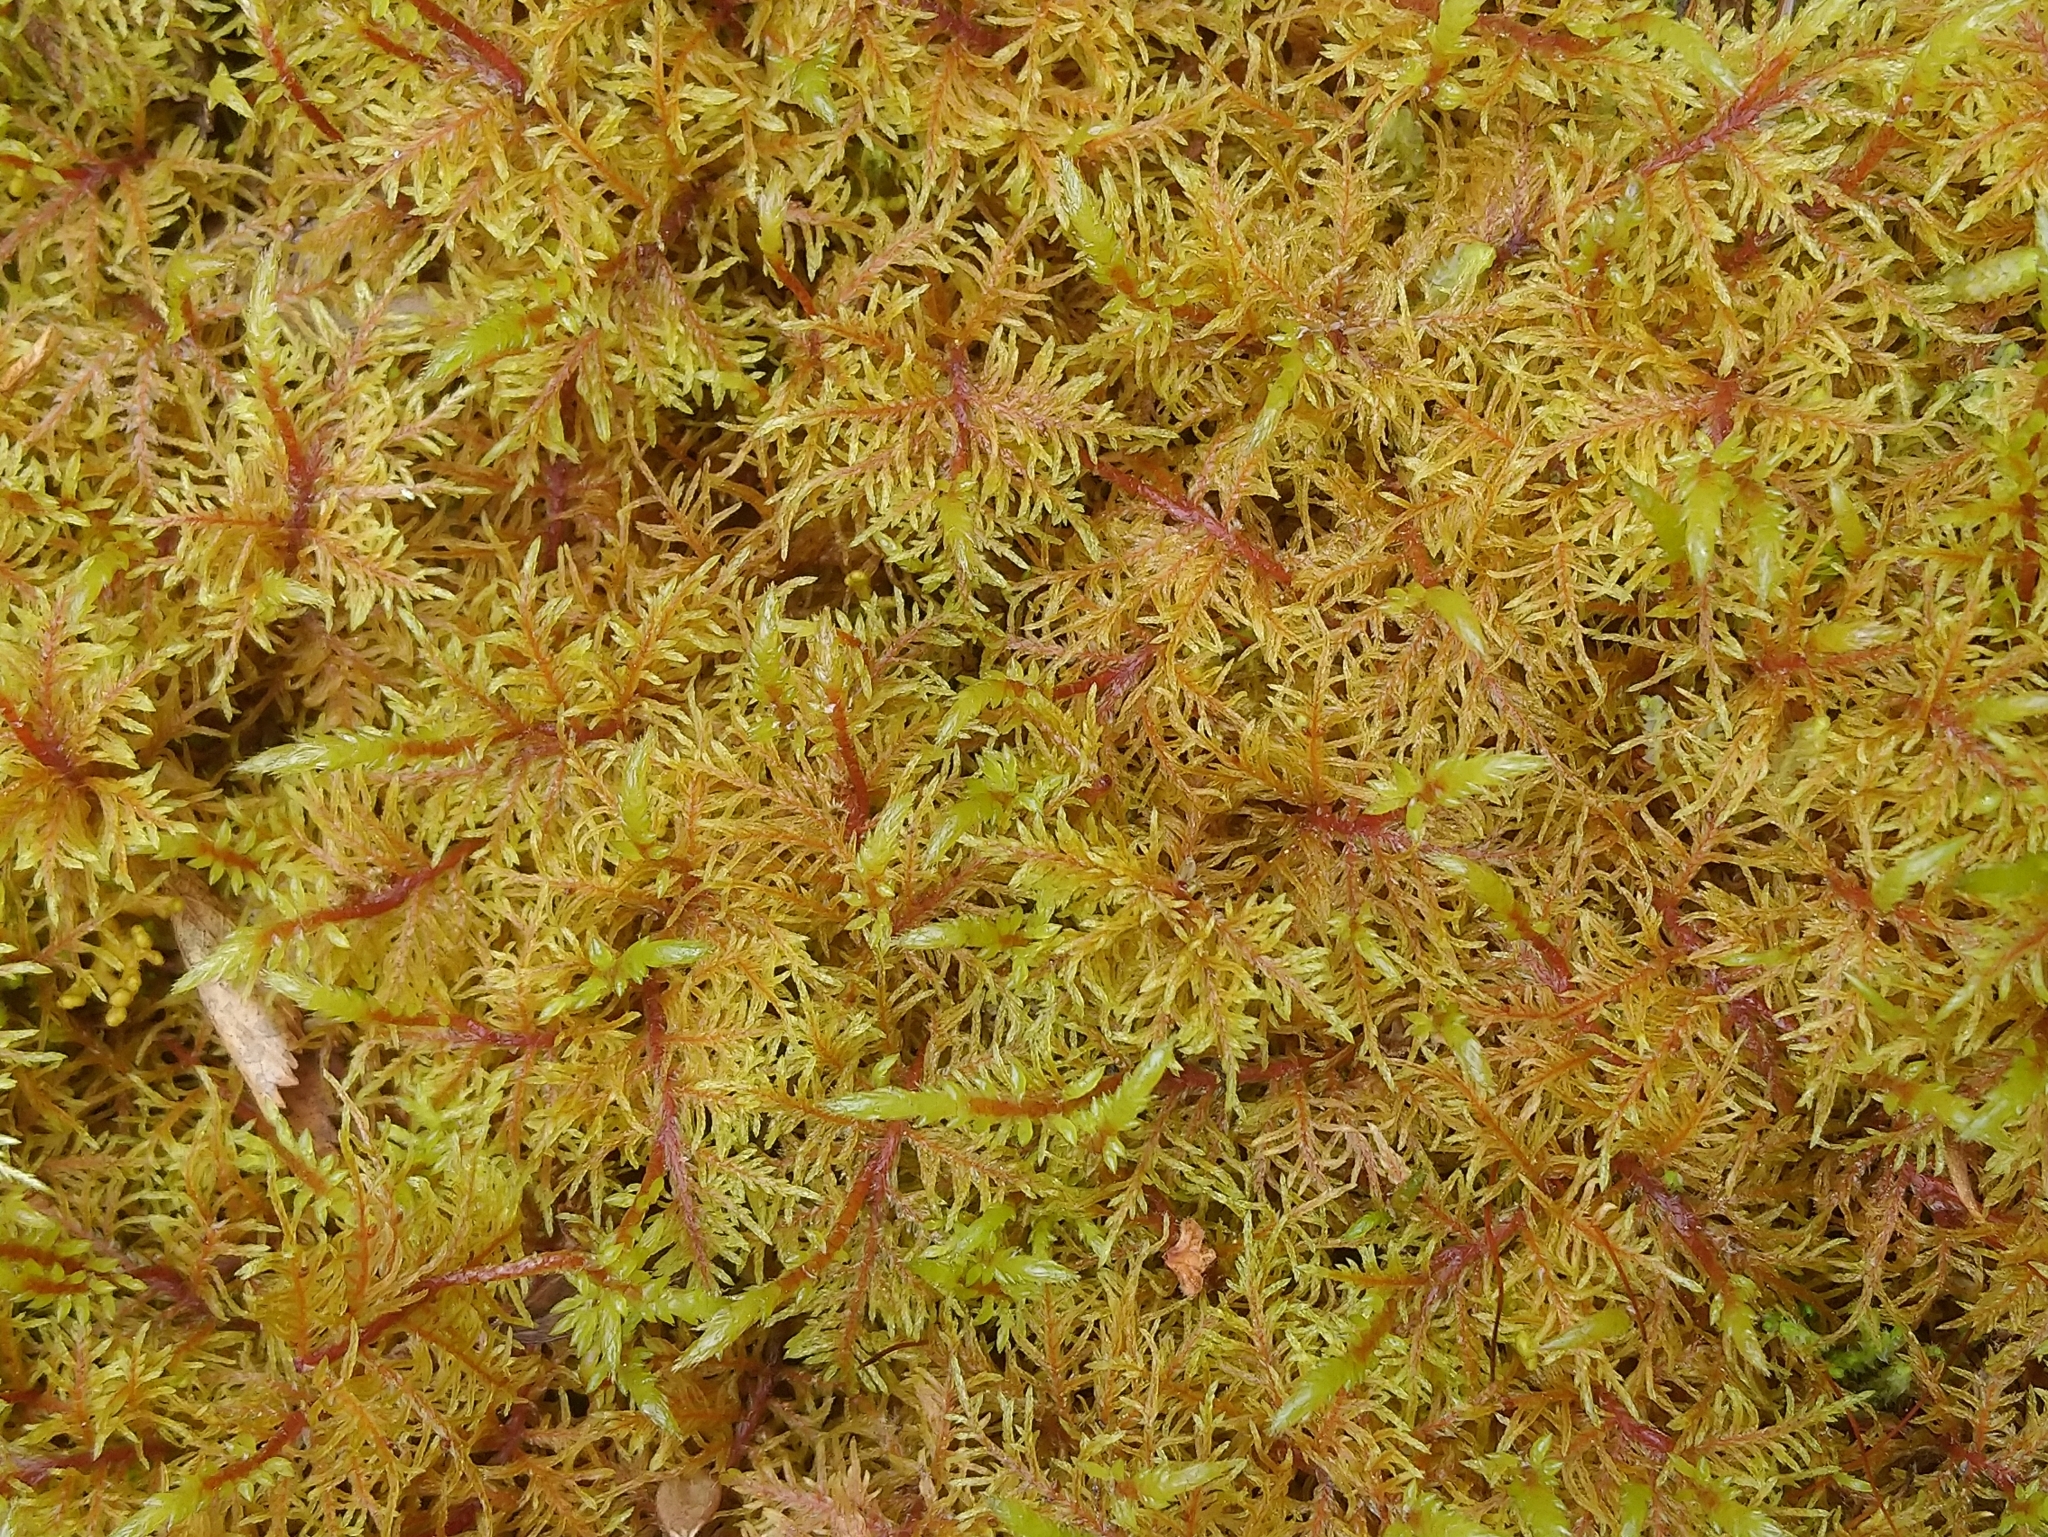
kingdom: Plantae
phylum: Bryophyta
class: Bryopsida
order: Hypnales
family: Hylocomiaceae
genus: Hylocomium
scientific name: Hylocomium splendens
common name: Stairstep moss
